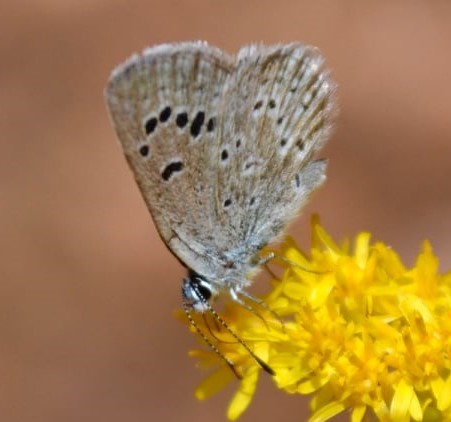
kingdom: Animalia
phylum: Arthropoda
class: Insecta
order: Lepidoptera
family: Lycaenidae
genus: Icaricia
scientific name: Icaricia icarioides
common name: Boisduval's blue
